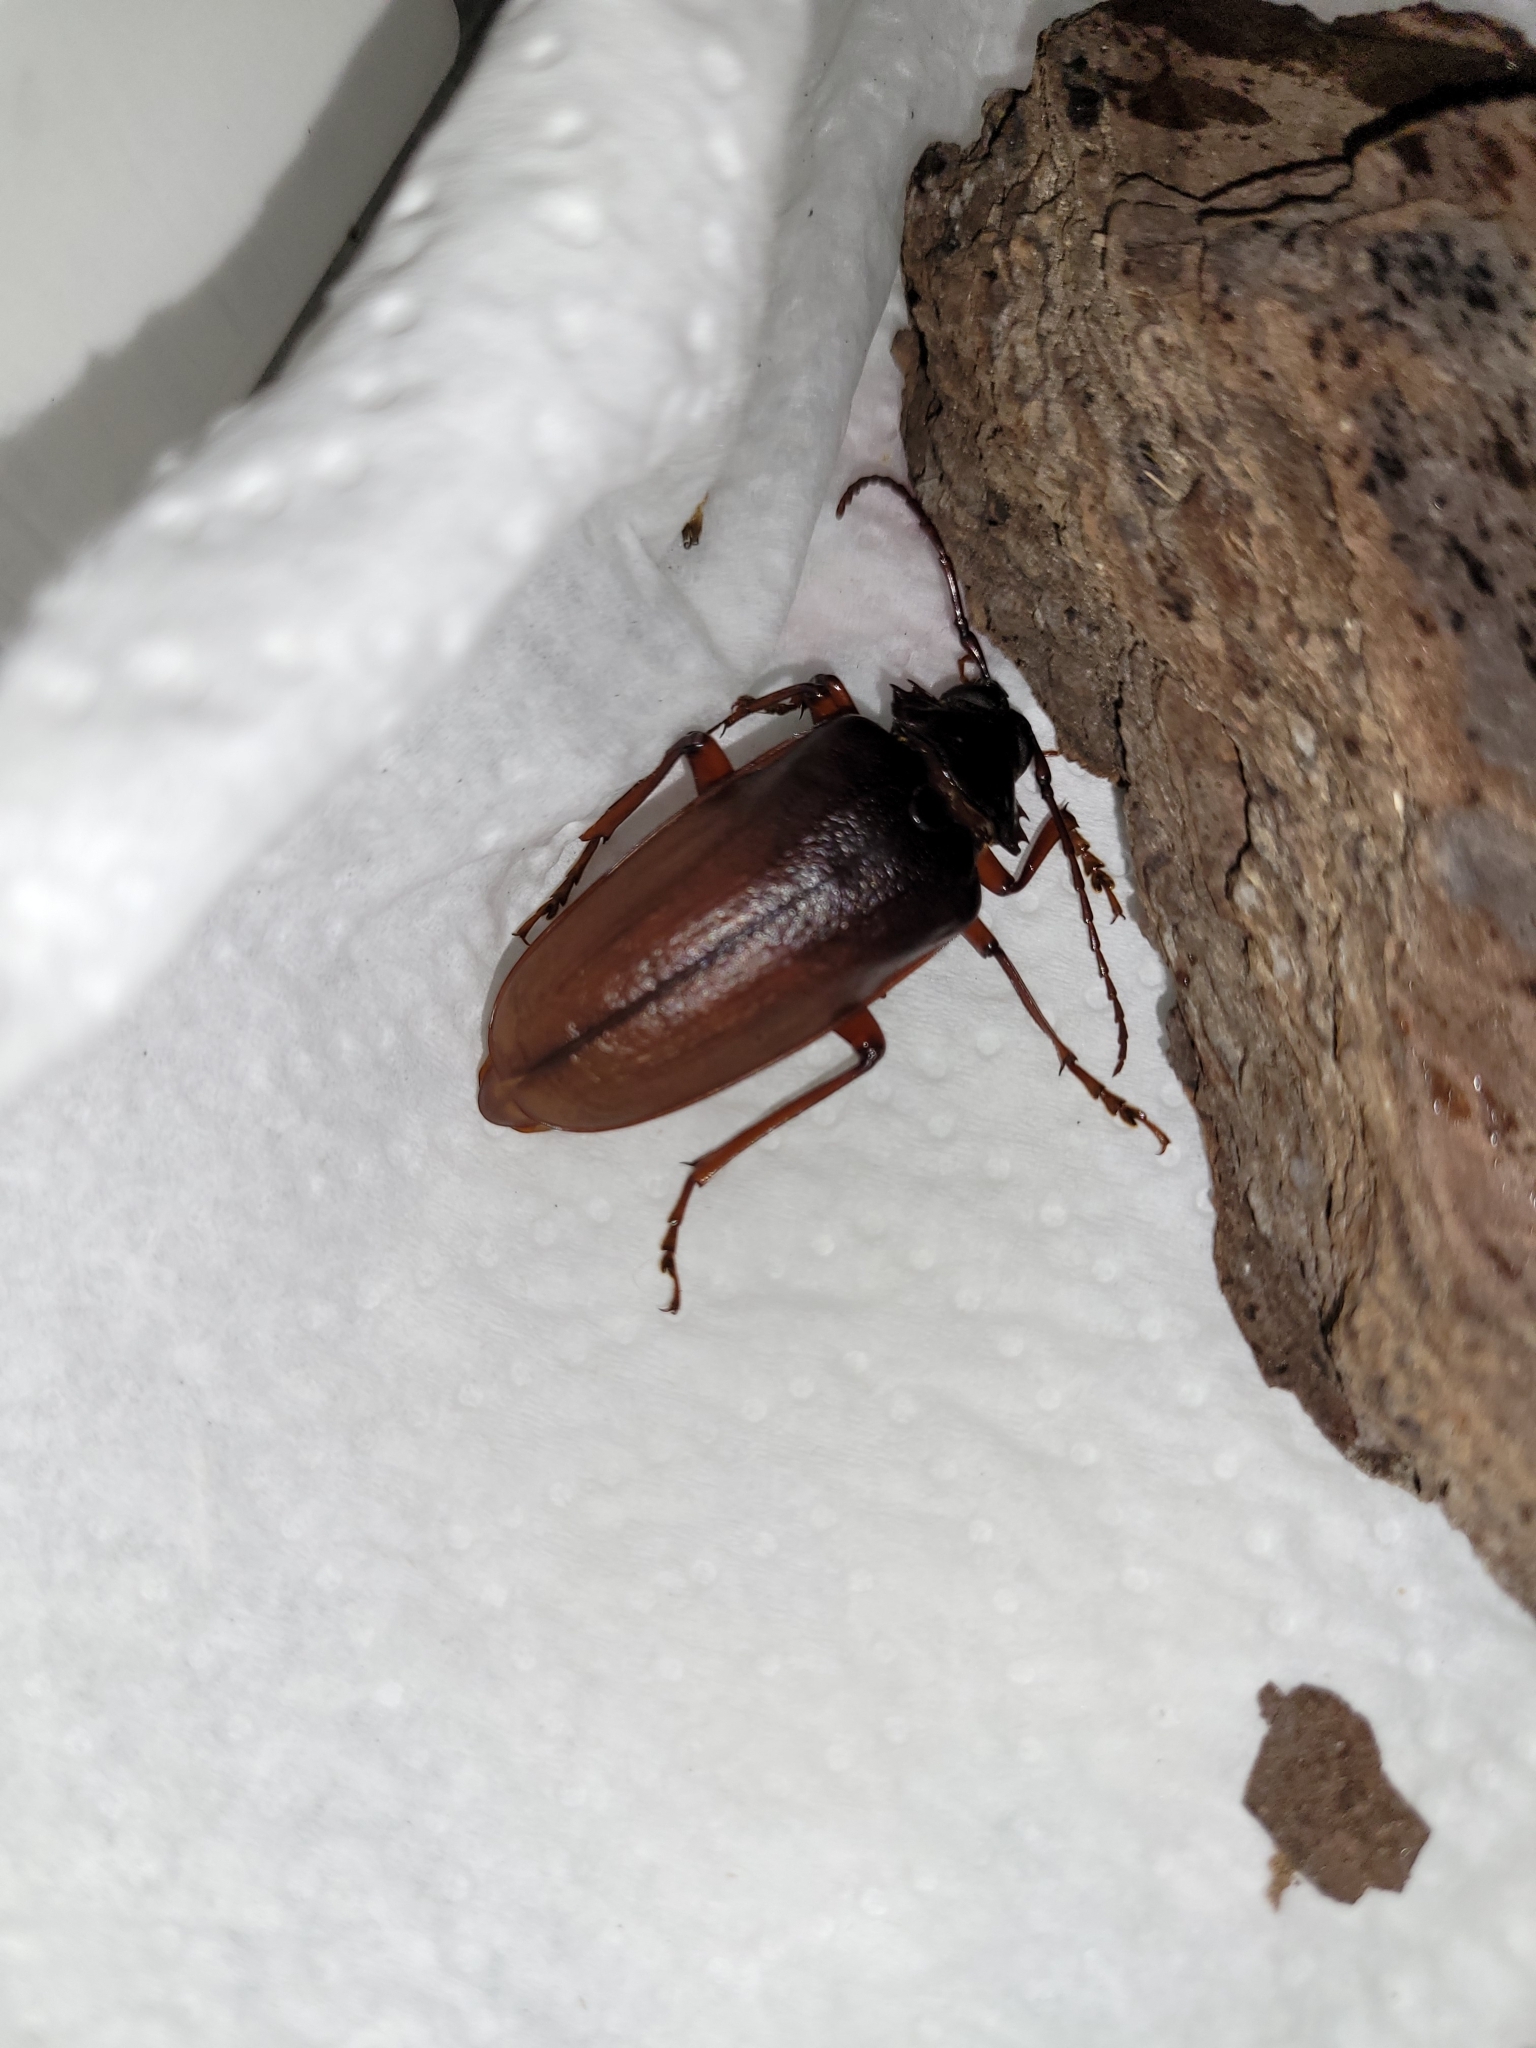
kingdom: Animalia
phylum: Arthropoda
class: Insecta
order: Coleoptera
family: Cerambycidae
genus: Prionus
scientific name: Prionus pocularis
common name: Tooth-necked longhorn beetle
